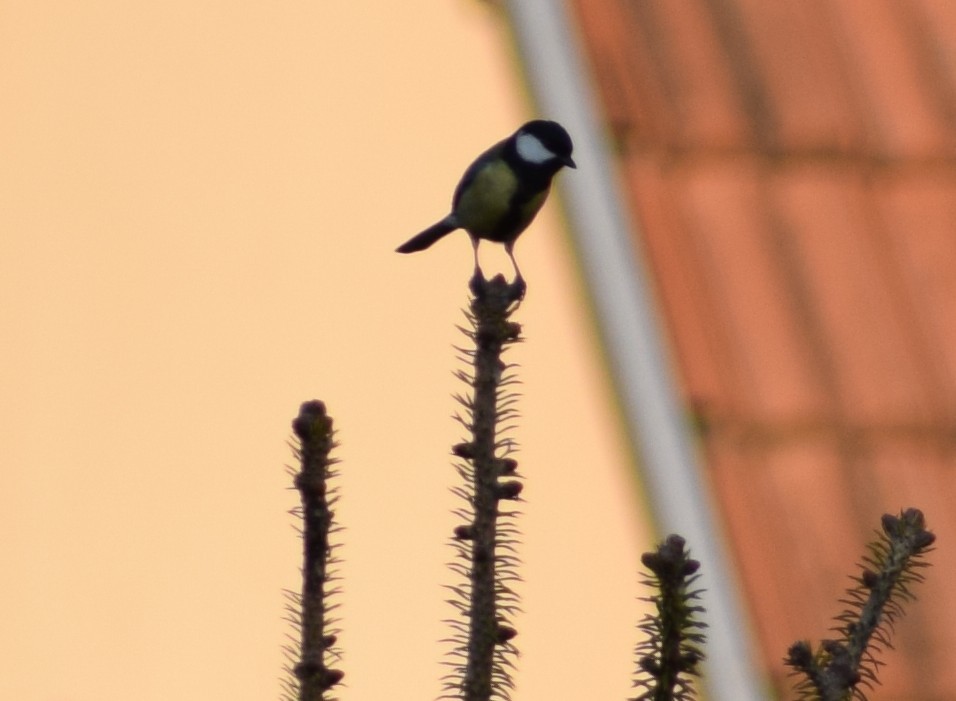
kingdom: Animalia
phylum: Chordata
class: Aves
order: Passeriformes
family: Paridae
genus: Parus
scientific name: Parus major
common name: Great tit
